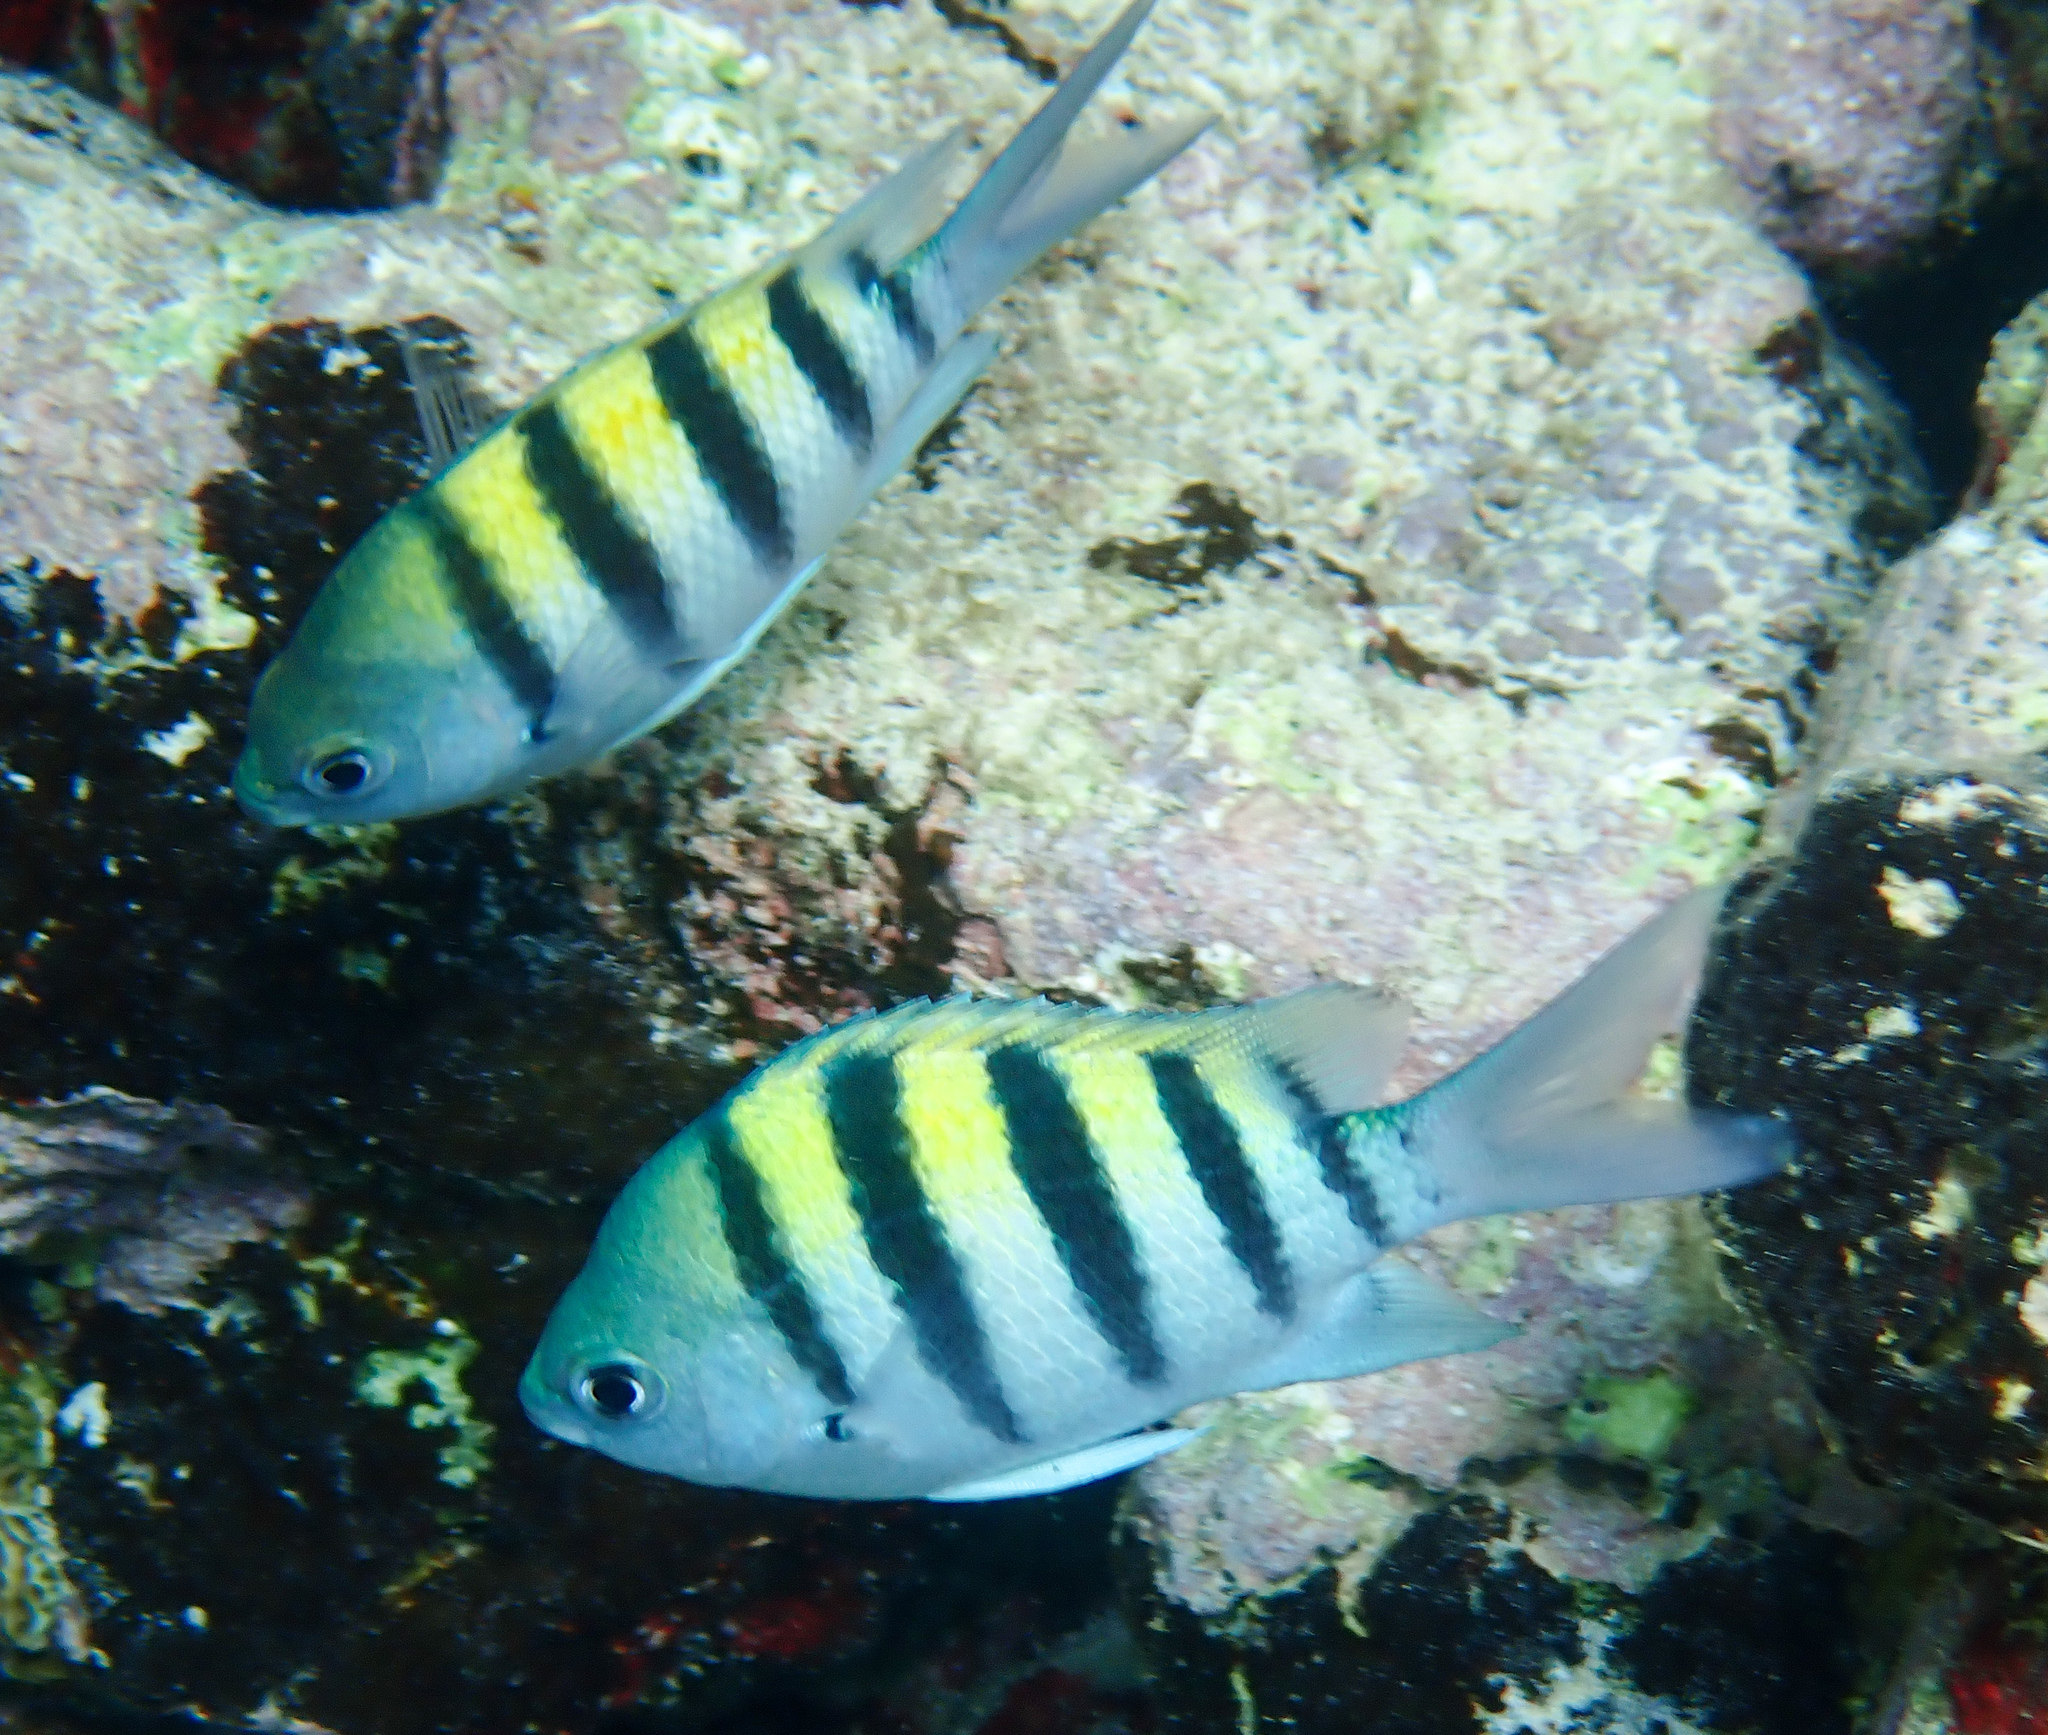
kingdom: Animalia
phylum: Chordata
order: Perciformes
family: Pomacentridae
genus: Abudefduf
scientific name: Abudefduf saxatilis
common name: Sergeant major
